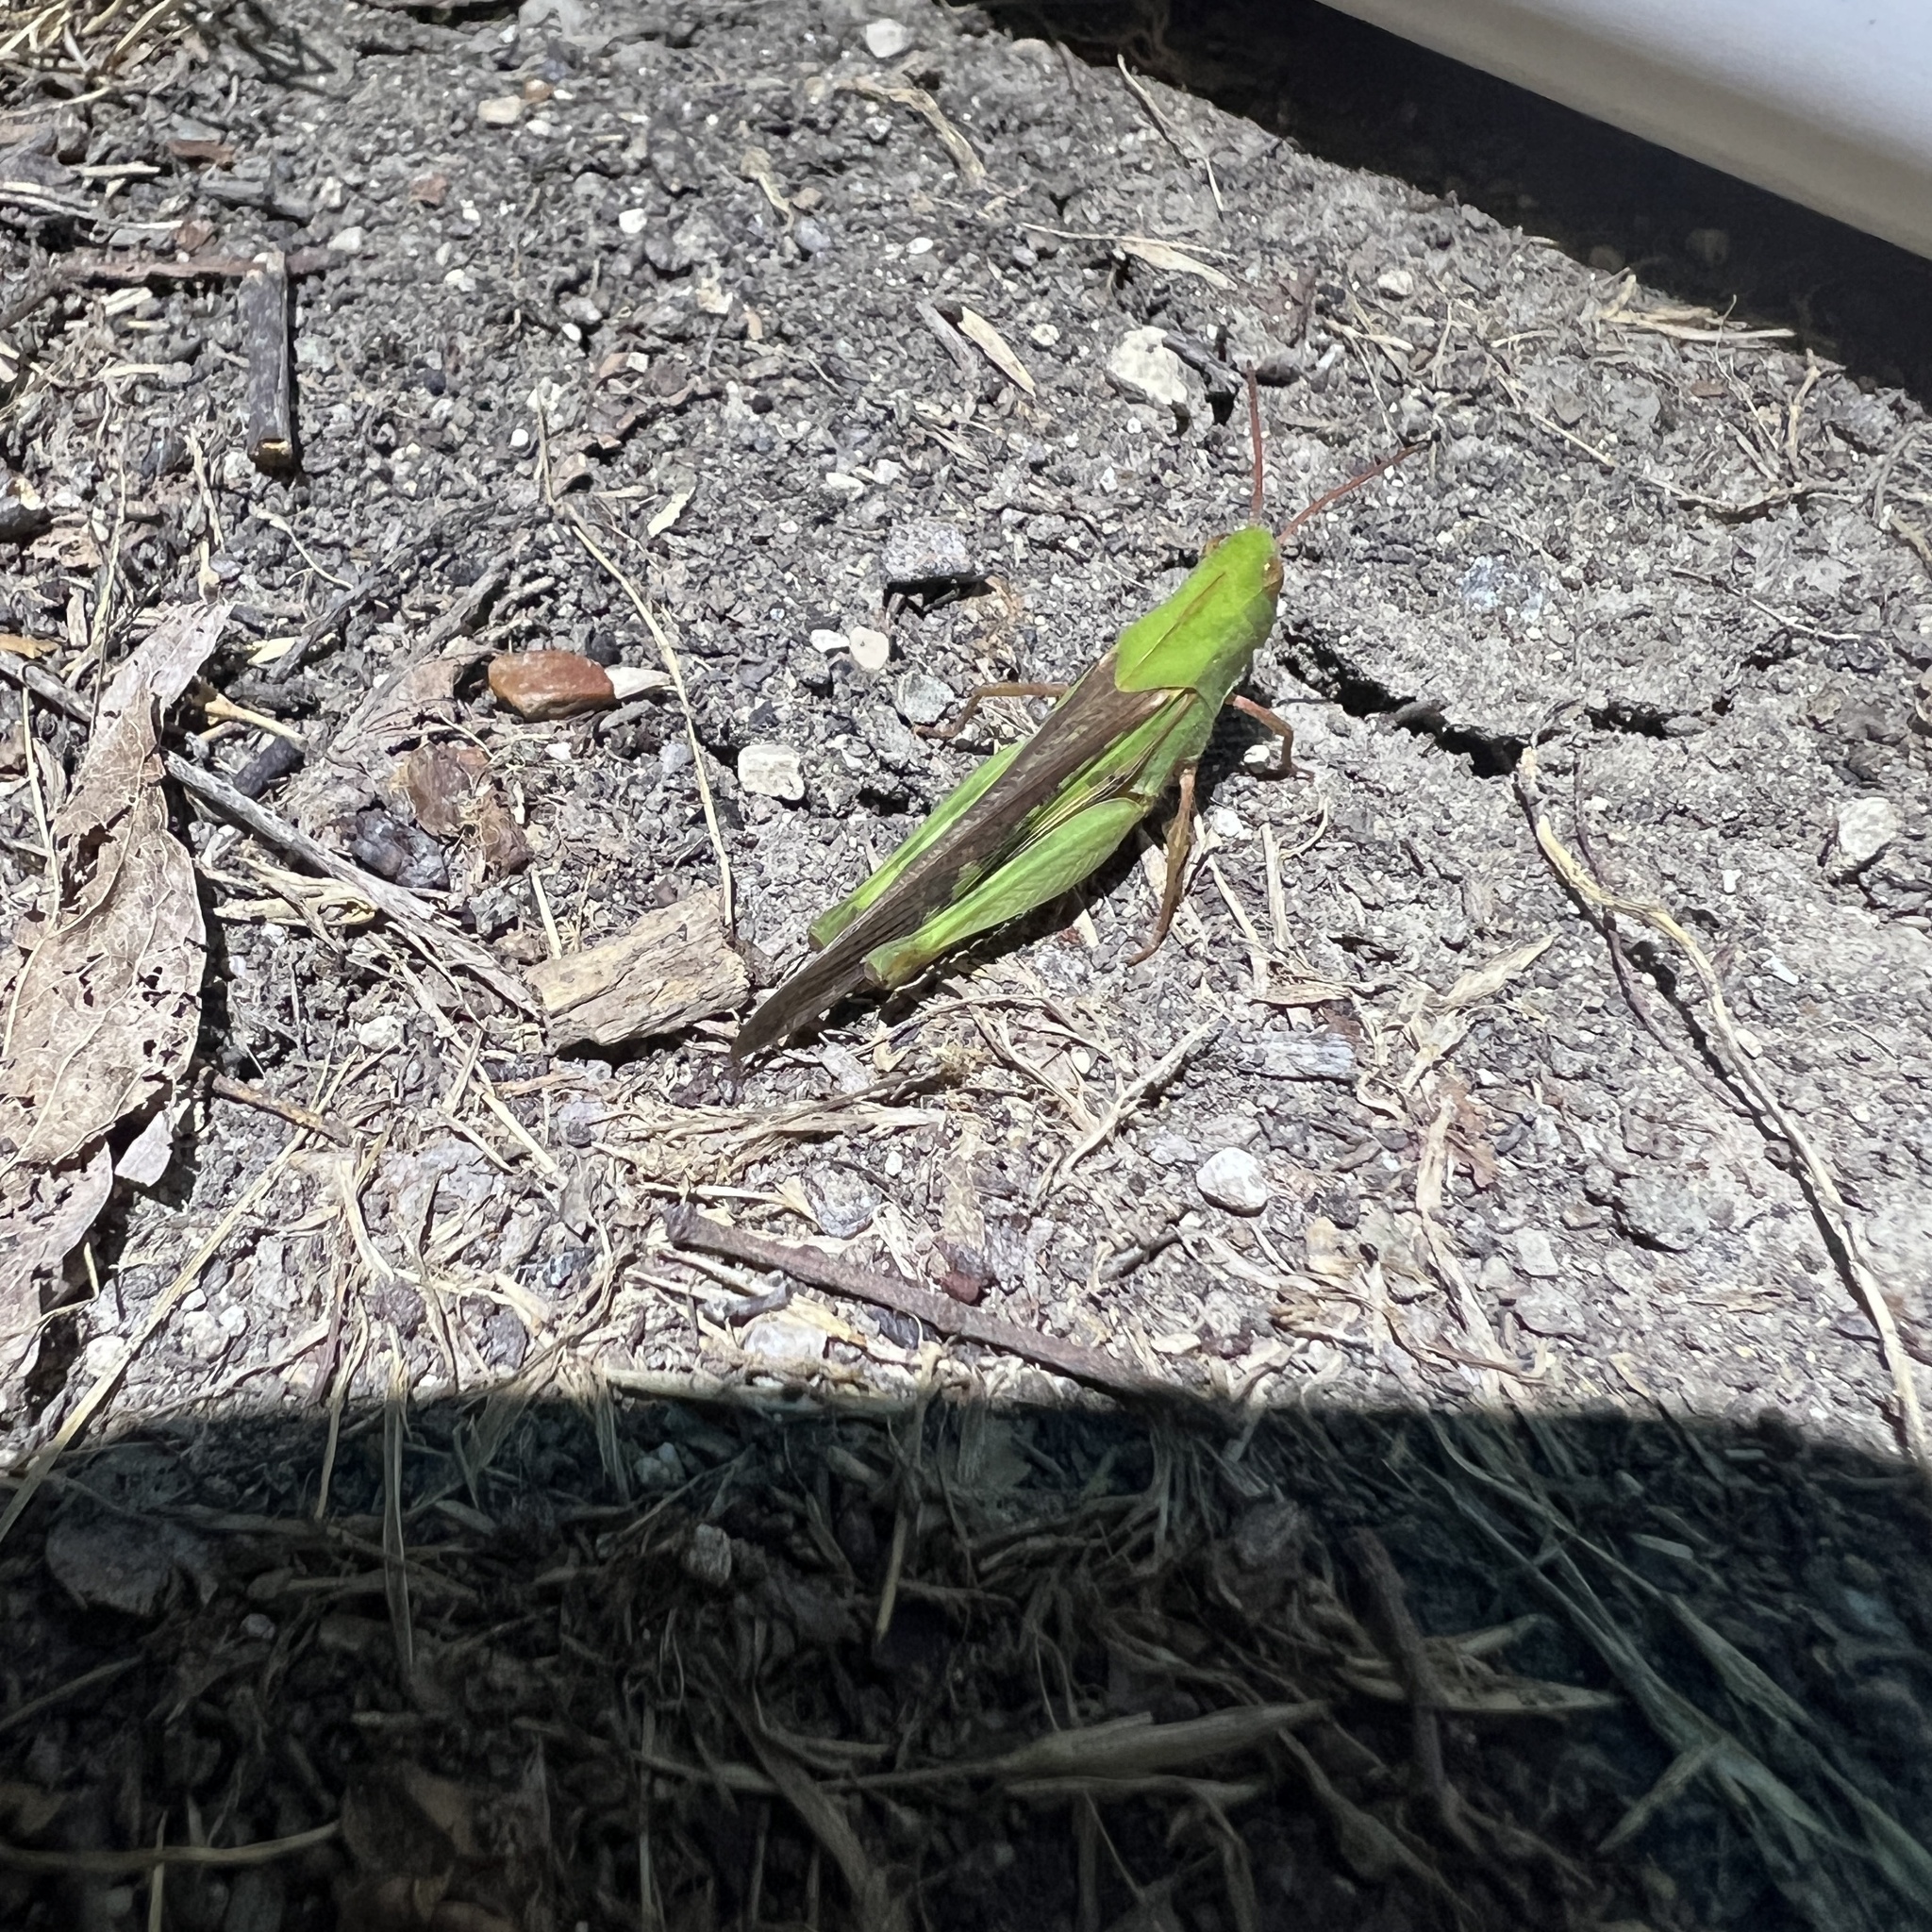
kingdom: Animalia
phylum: Arthropoda
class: Insecta
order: Orthoptera
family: Acrididae
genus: Chortophaga
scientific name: Chortophaga viridifasciata
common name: Green-striped grasshopper
